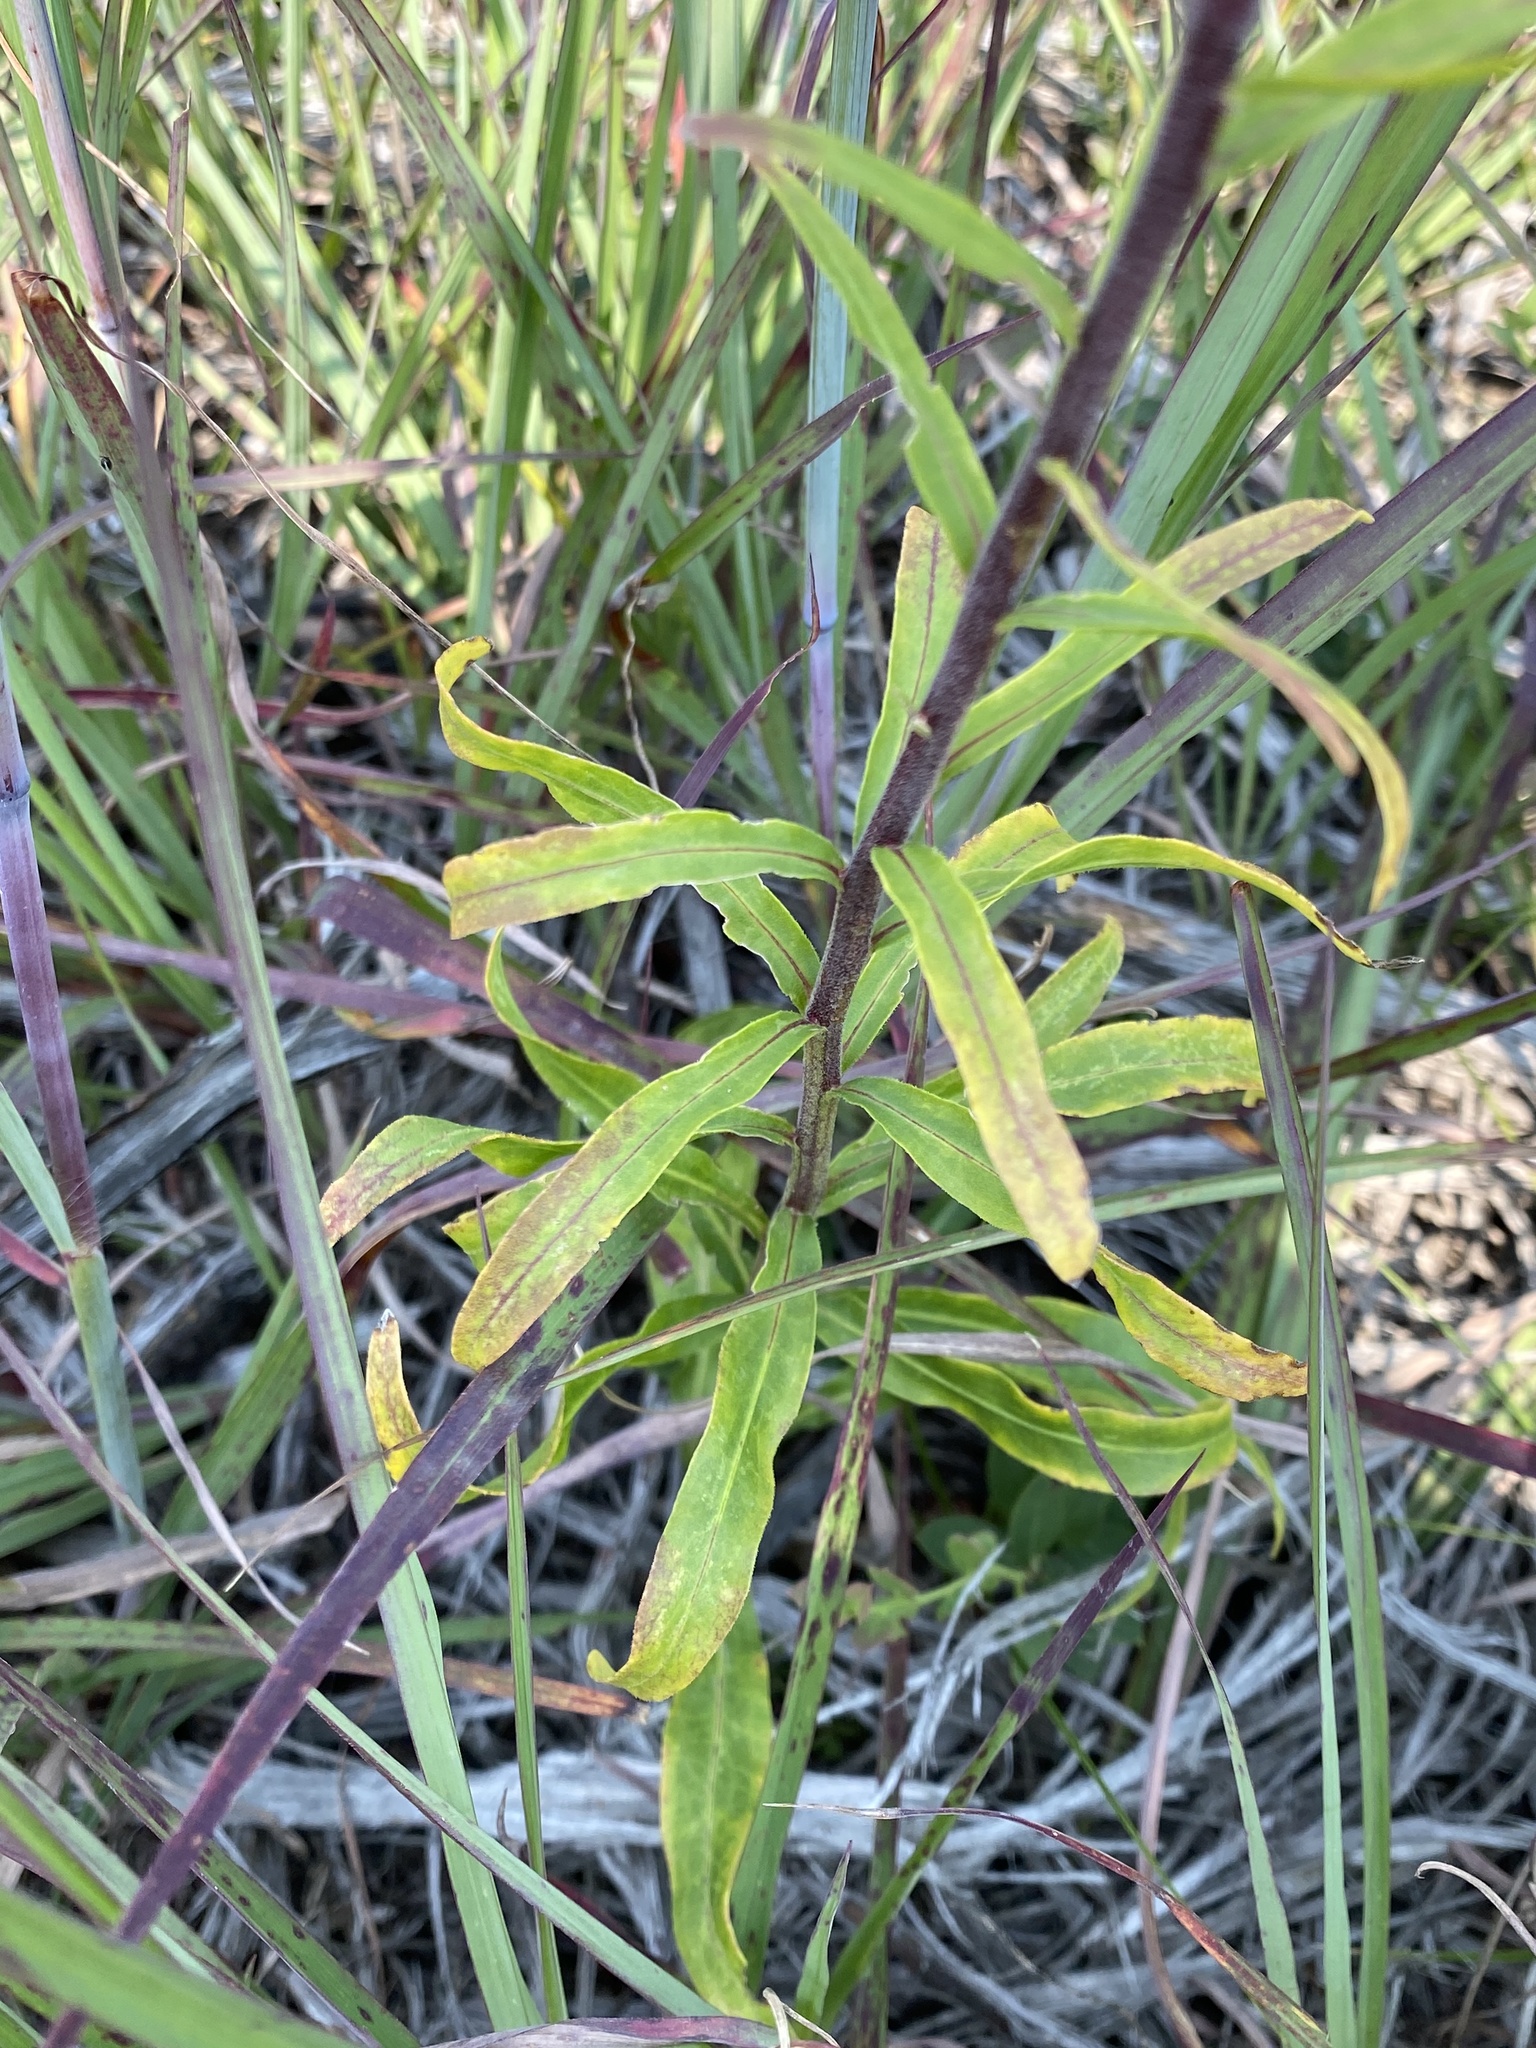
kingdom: Plantae
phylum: Tracheophyta
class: Magnoliopsida
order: Asterales
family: Asteraceae
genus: Liatris
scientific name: Liatris scariosa
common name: Northern gayfeather
